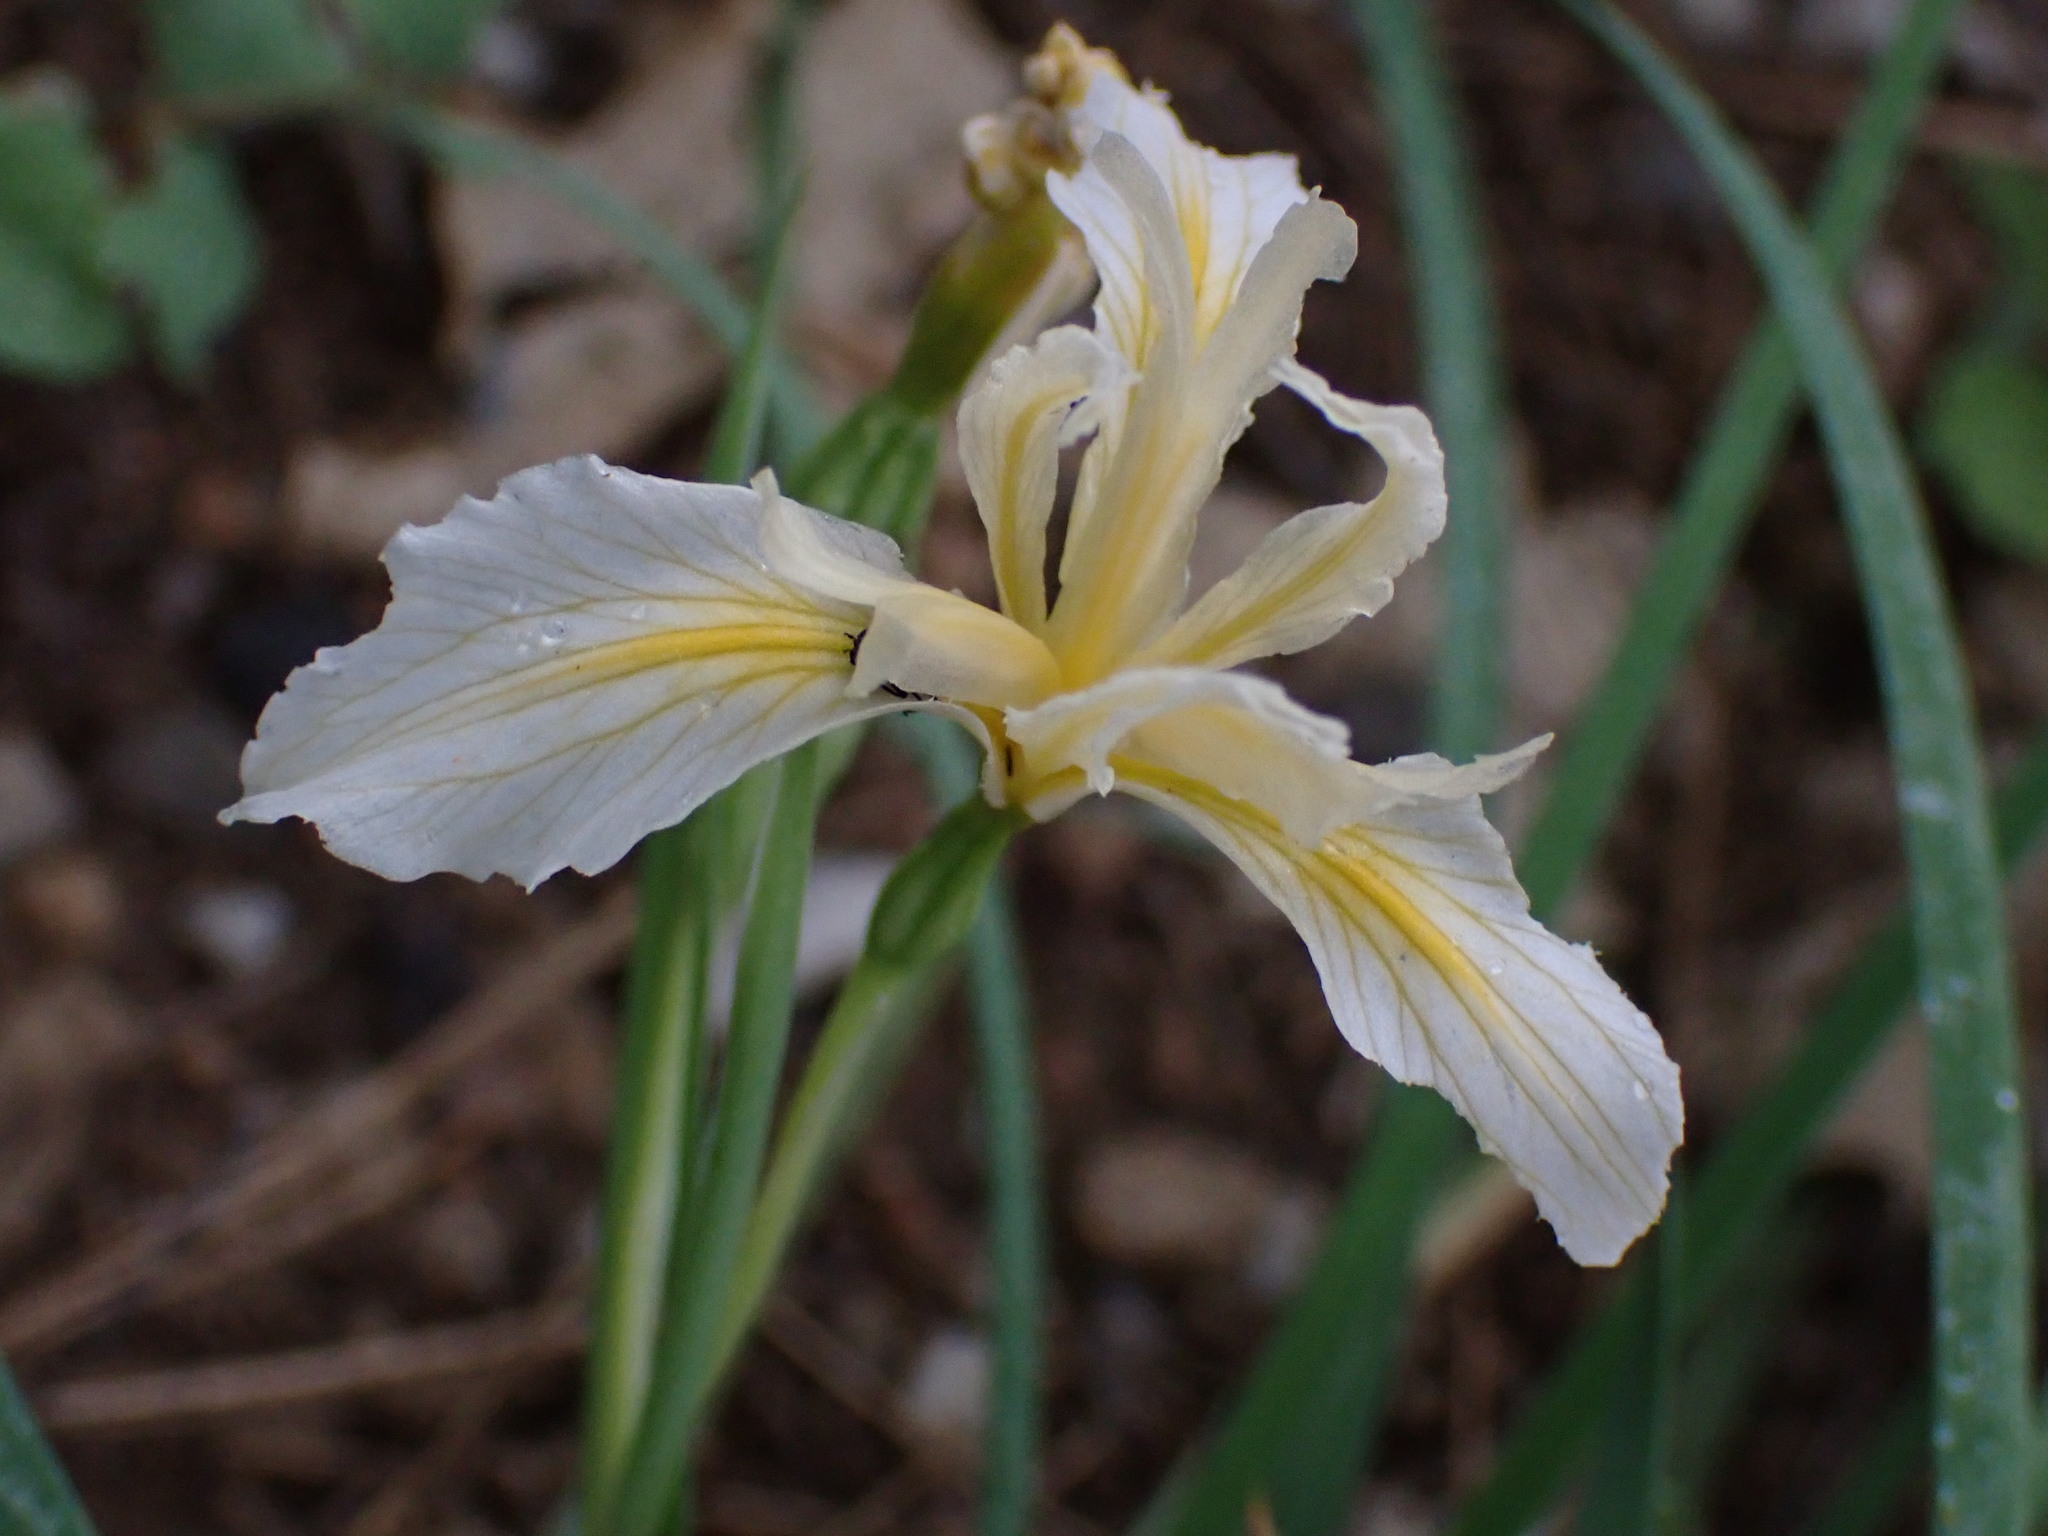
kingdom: Plantae
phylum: Tracheophyta
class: Liliopsida
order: Asparagales
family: Iridaceae
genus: Iris
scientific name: Iris hartwegii
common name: Sierra iris
